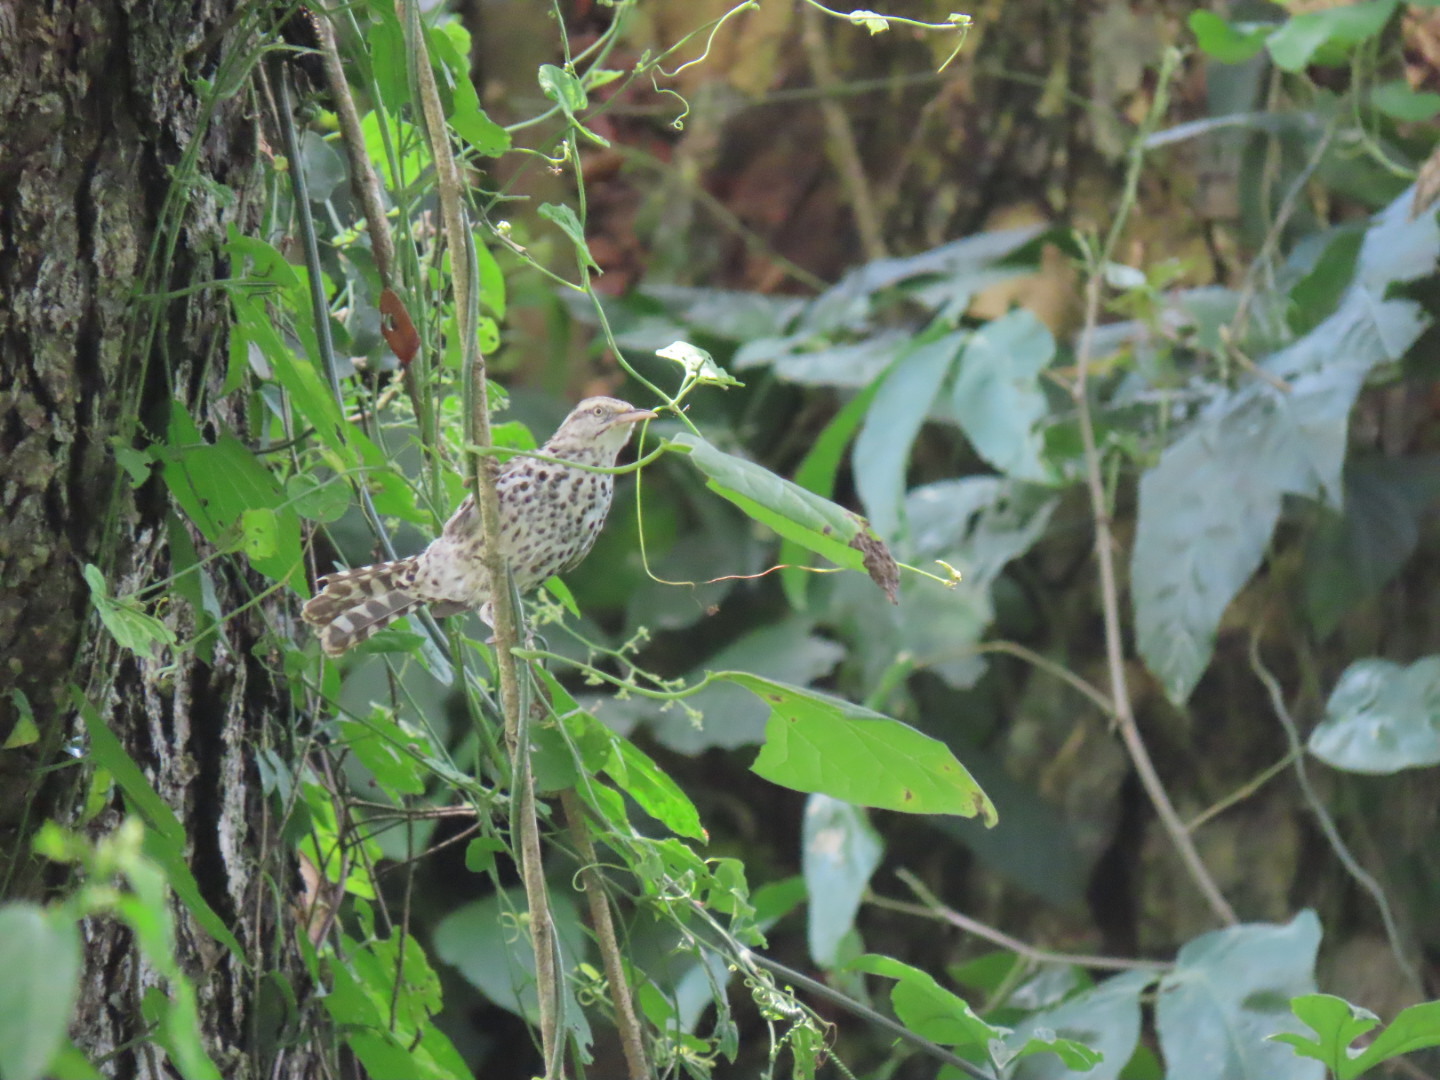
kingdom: Animalia
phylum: Chordata
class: Aves
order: Passeriformes
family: Troglodytidae
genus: Campylorhynchus
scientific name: Campylorhynchus nuchalis
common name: Stripe-backed wren
